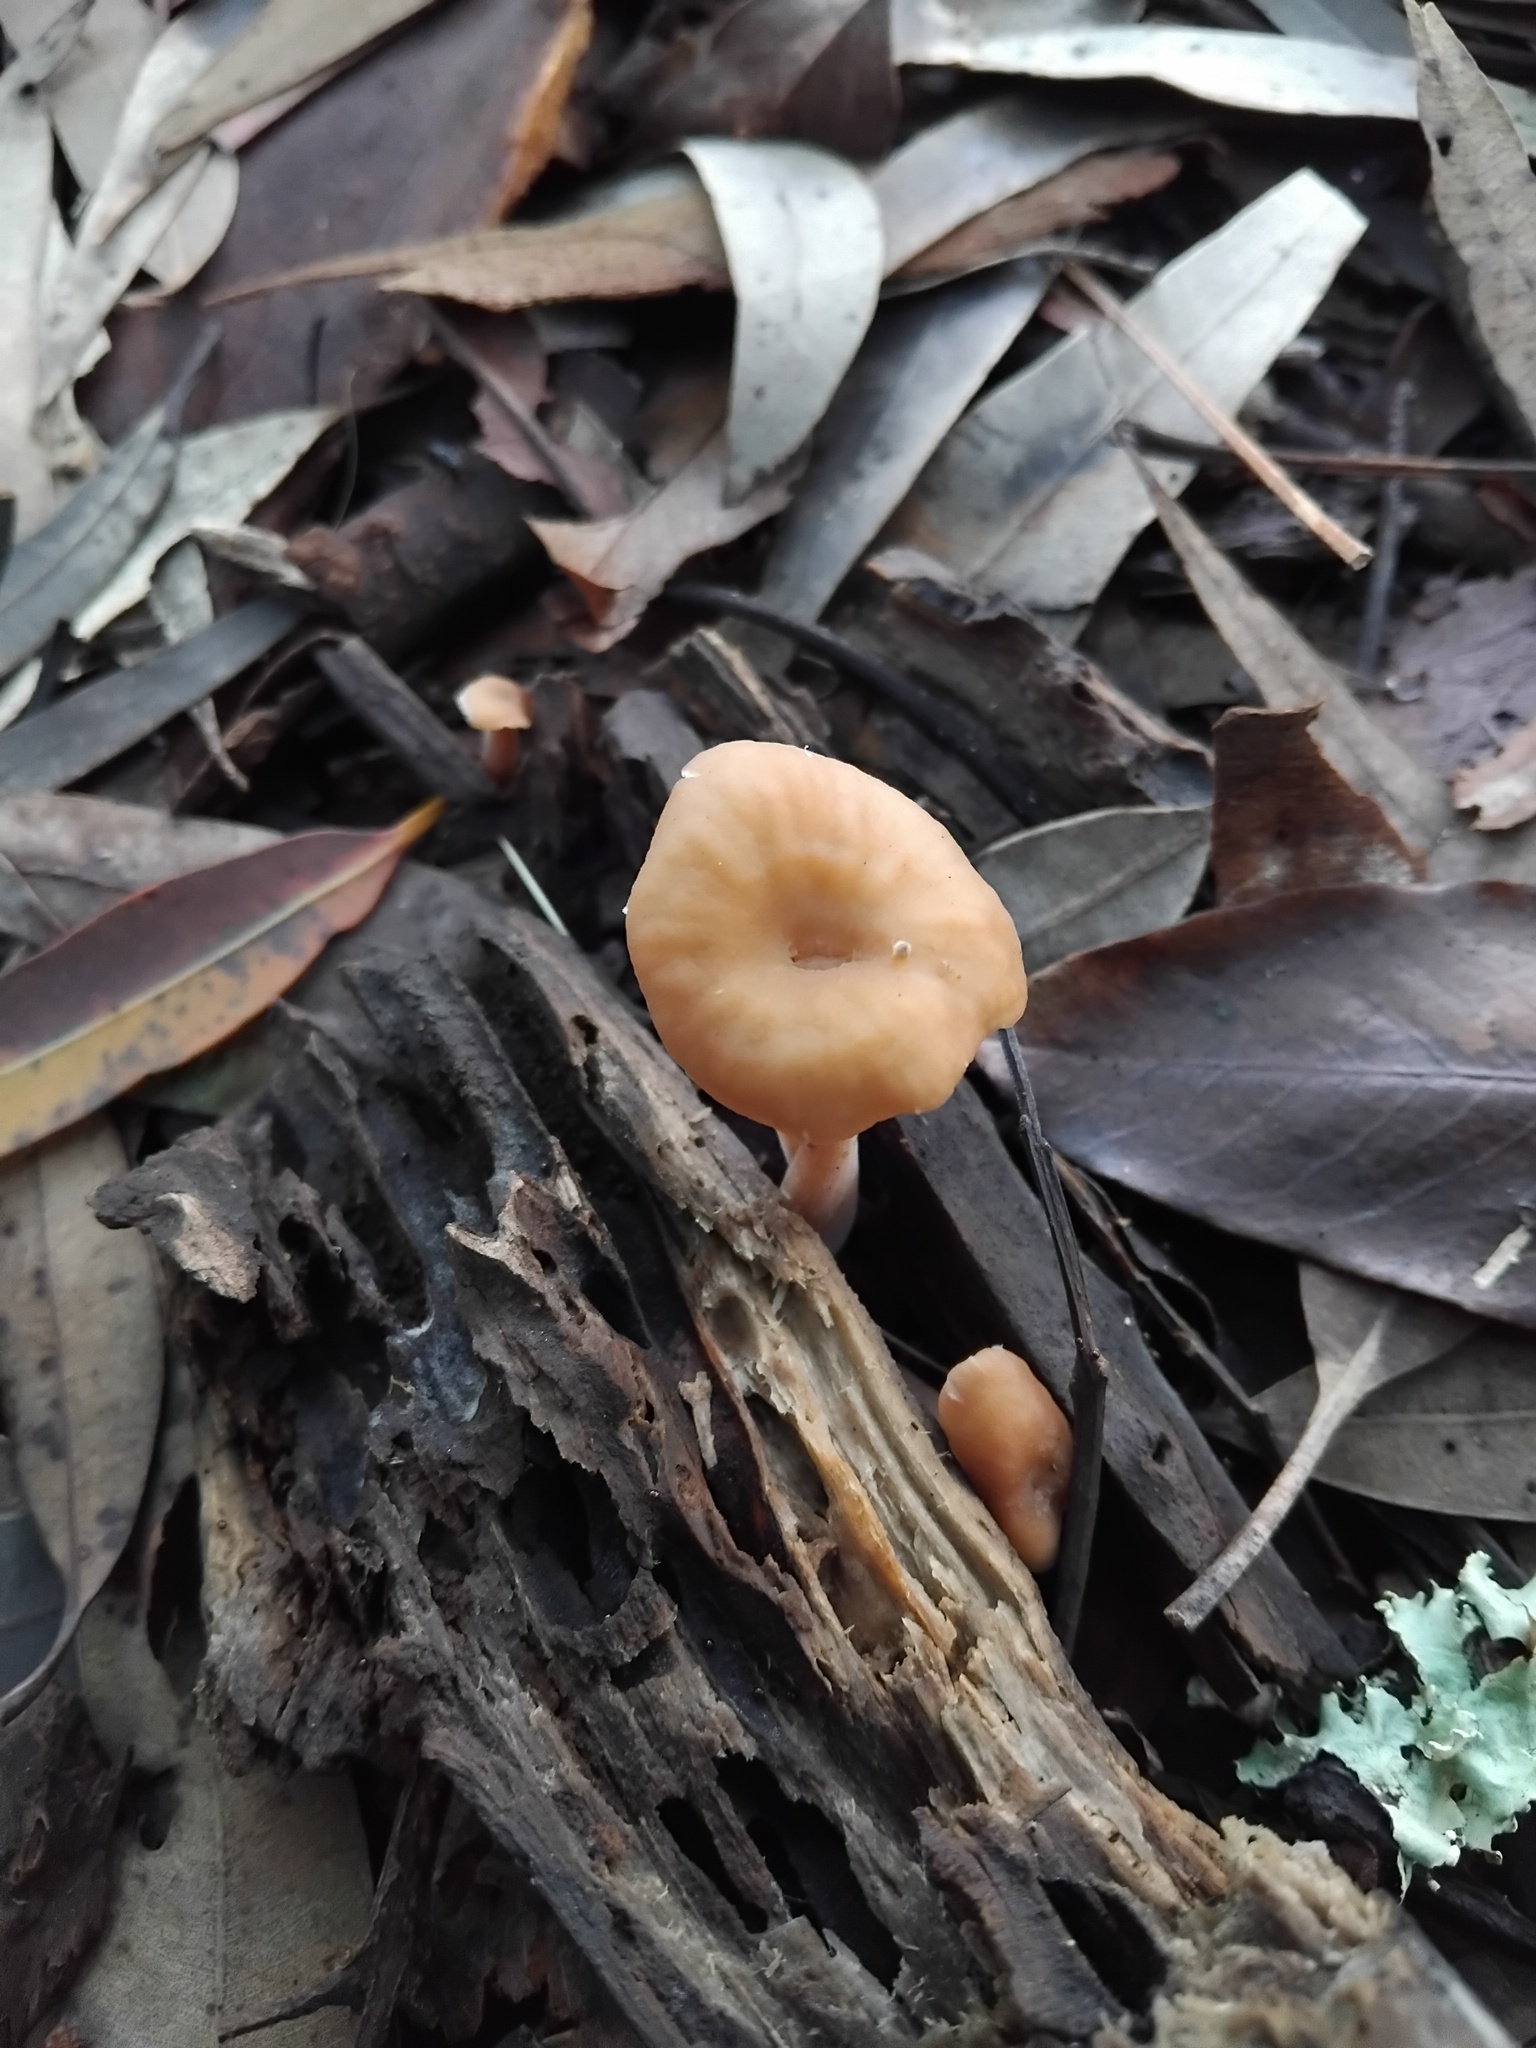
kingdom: Fungi
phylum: Basidiomycota
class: Agaricomycetes
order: Agaricales
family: Tricholomataceae
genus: Collybia
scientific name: Collybia kurara
